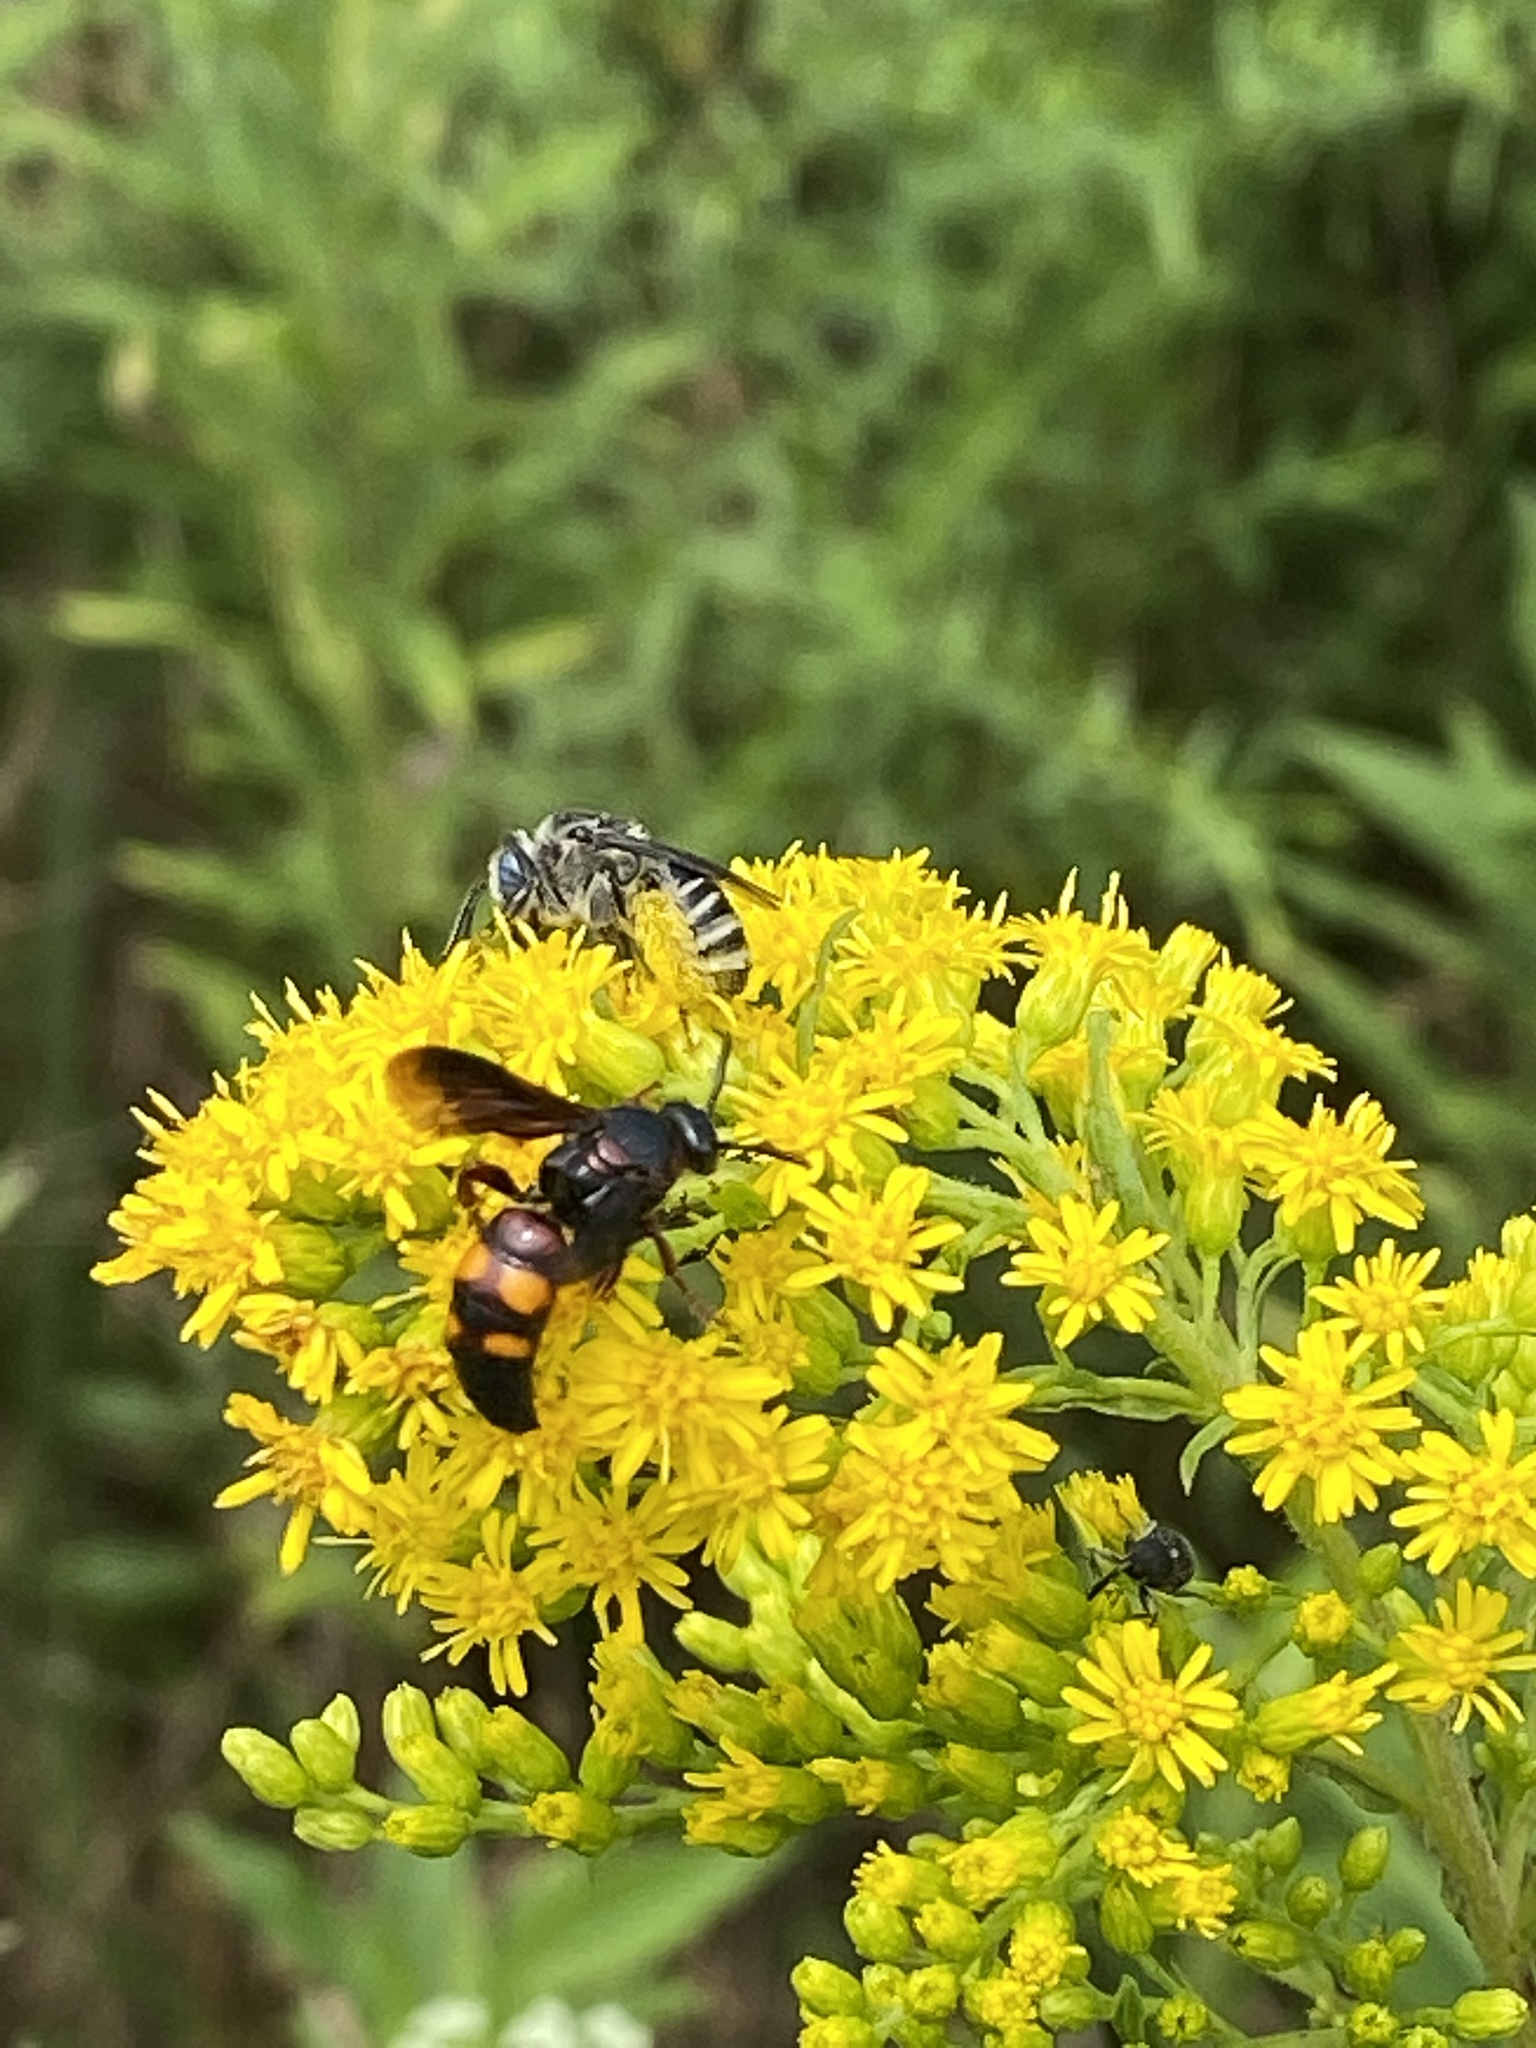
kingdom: Animalia
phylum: Arthropoda
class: Insecta
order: Hymenoptera
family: Scoliidae
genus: Scolia
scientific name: Scolia nobilitata
